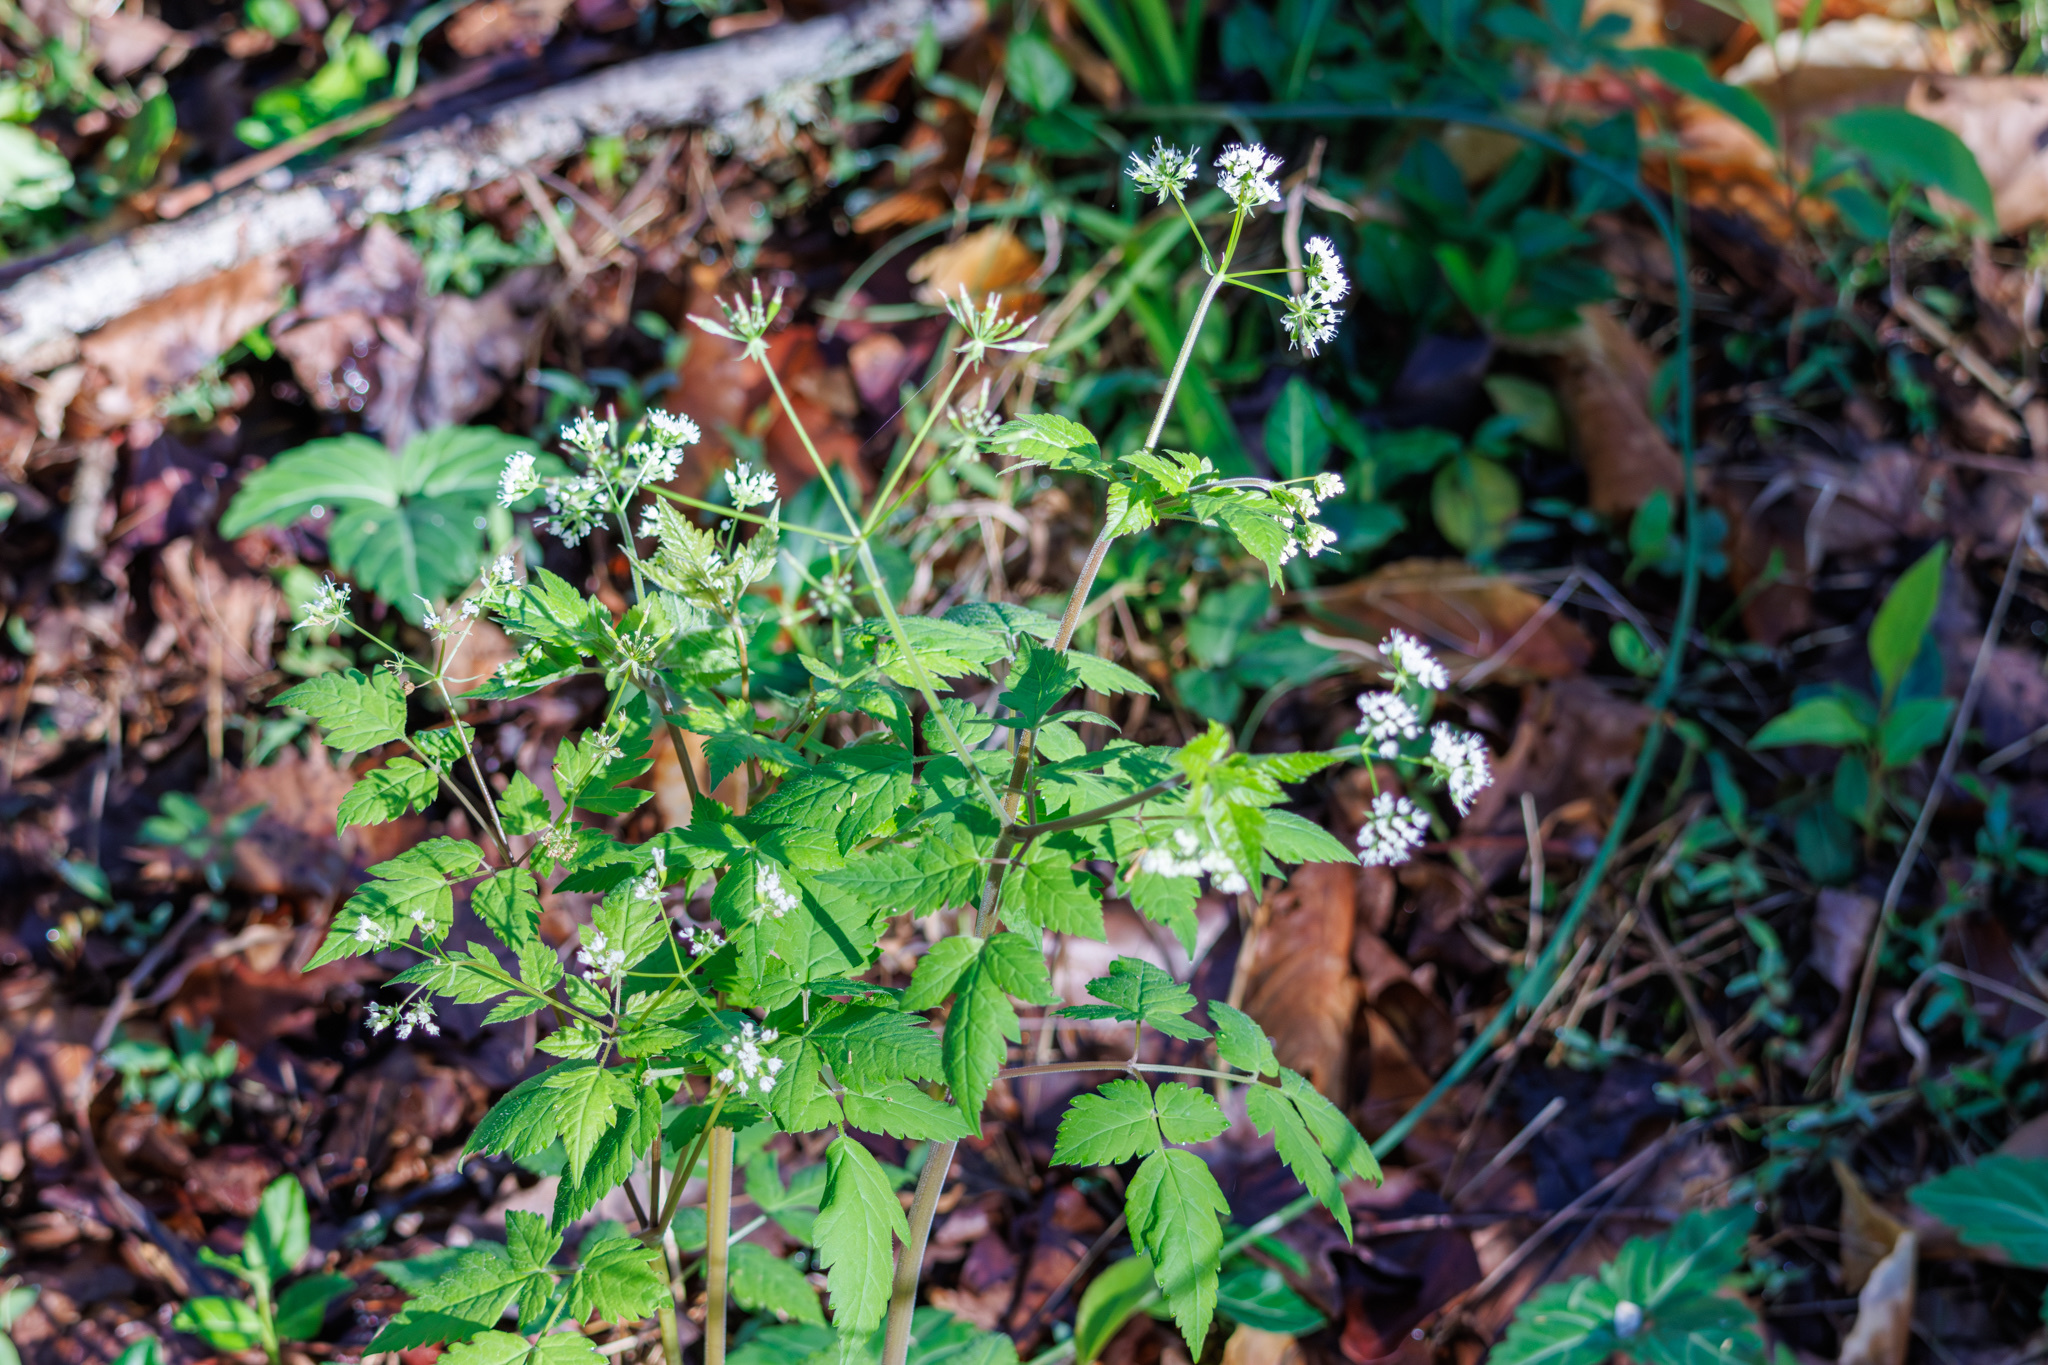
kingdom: Plantae
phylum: Tracheophyta
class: Magnoliopsida
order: Apiales
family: Apiaceae
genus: Osmorhiza
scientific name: Osmorhiza longistylis
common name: Smooth sweet cicely
